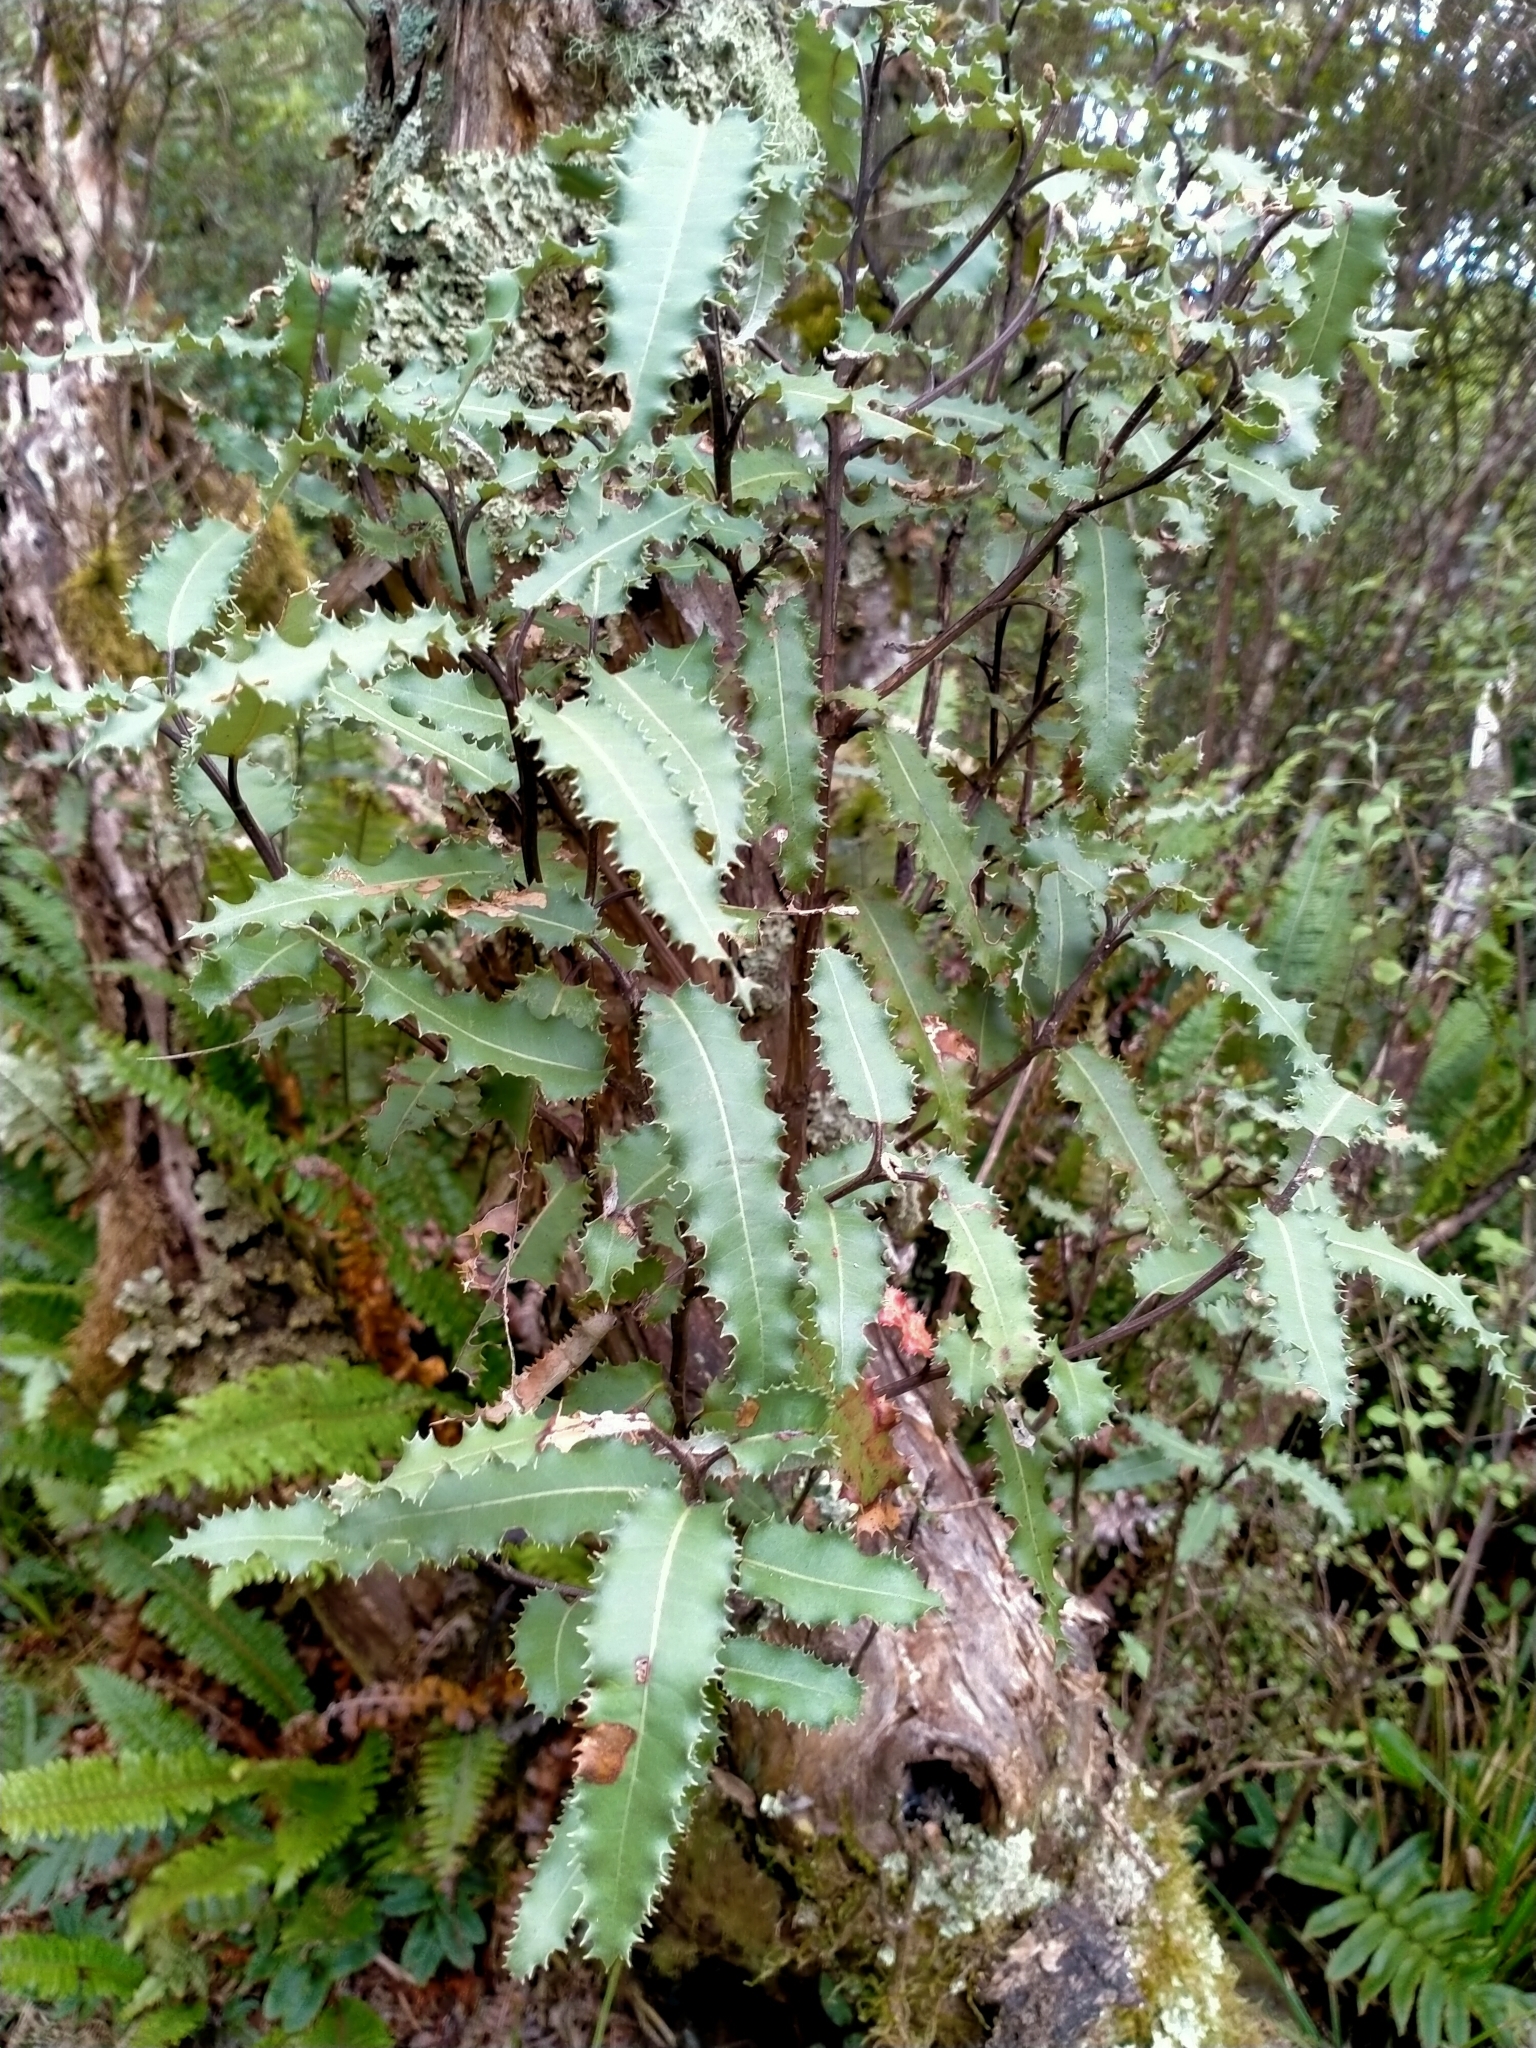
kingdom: Plantae
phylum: Tracheophyta
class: Magnoliopsida
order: Asterales
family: Asteraceae
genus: Olearia
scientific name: Olearia ilicifolia
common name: Maori-holly
